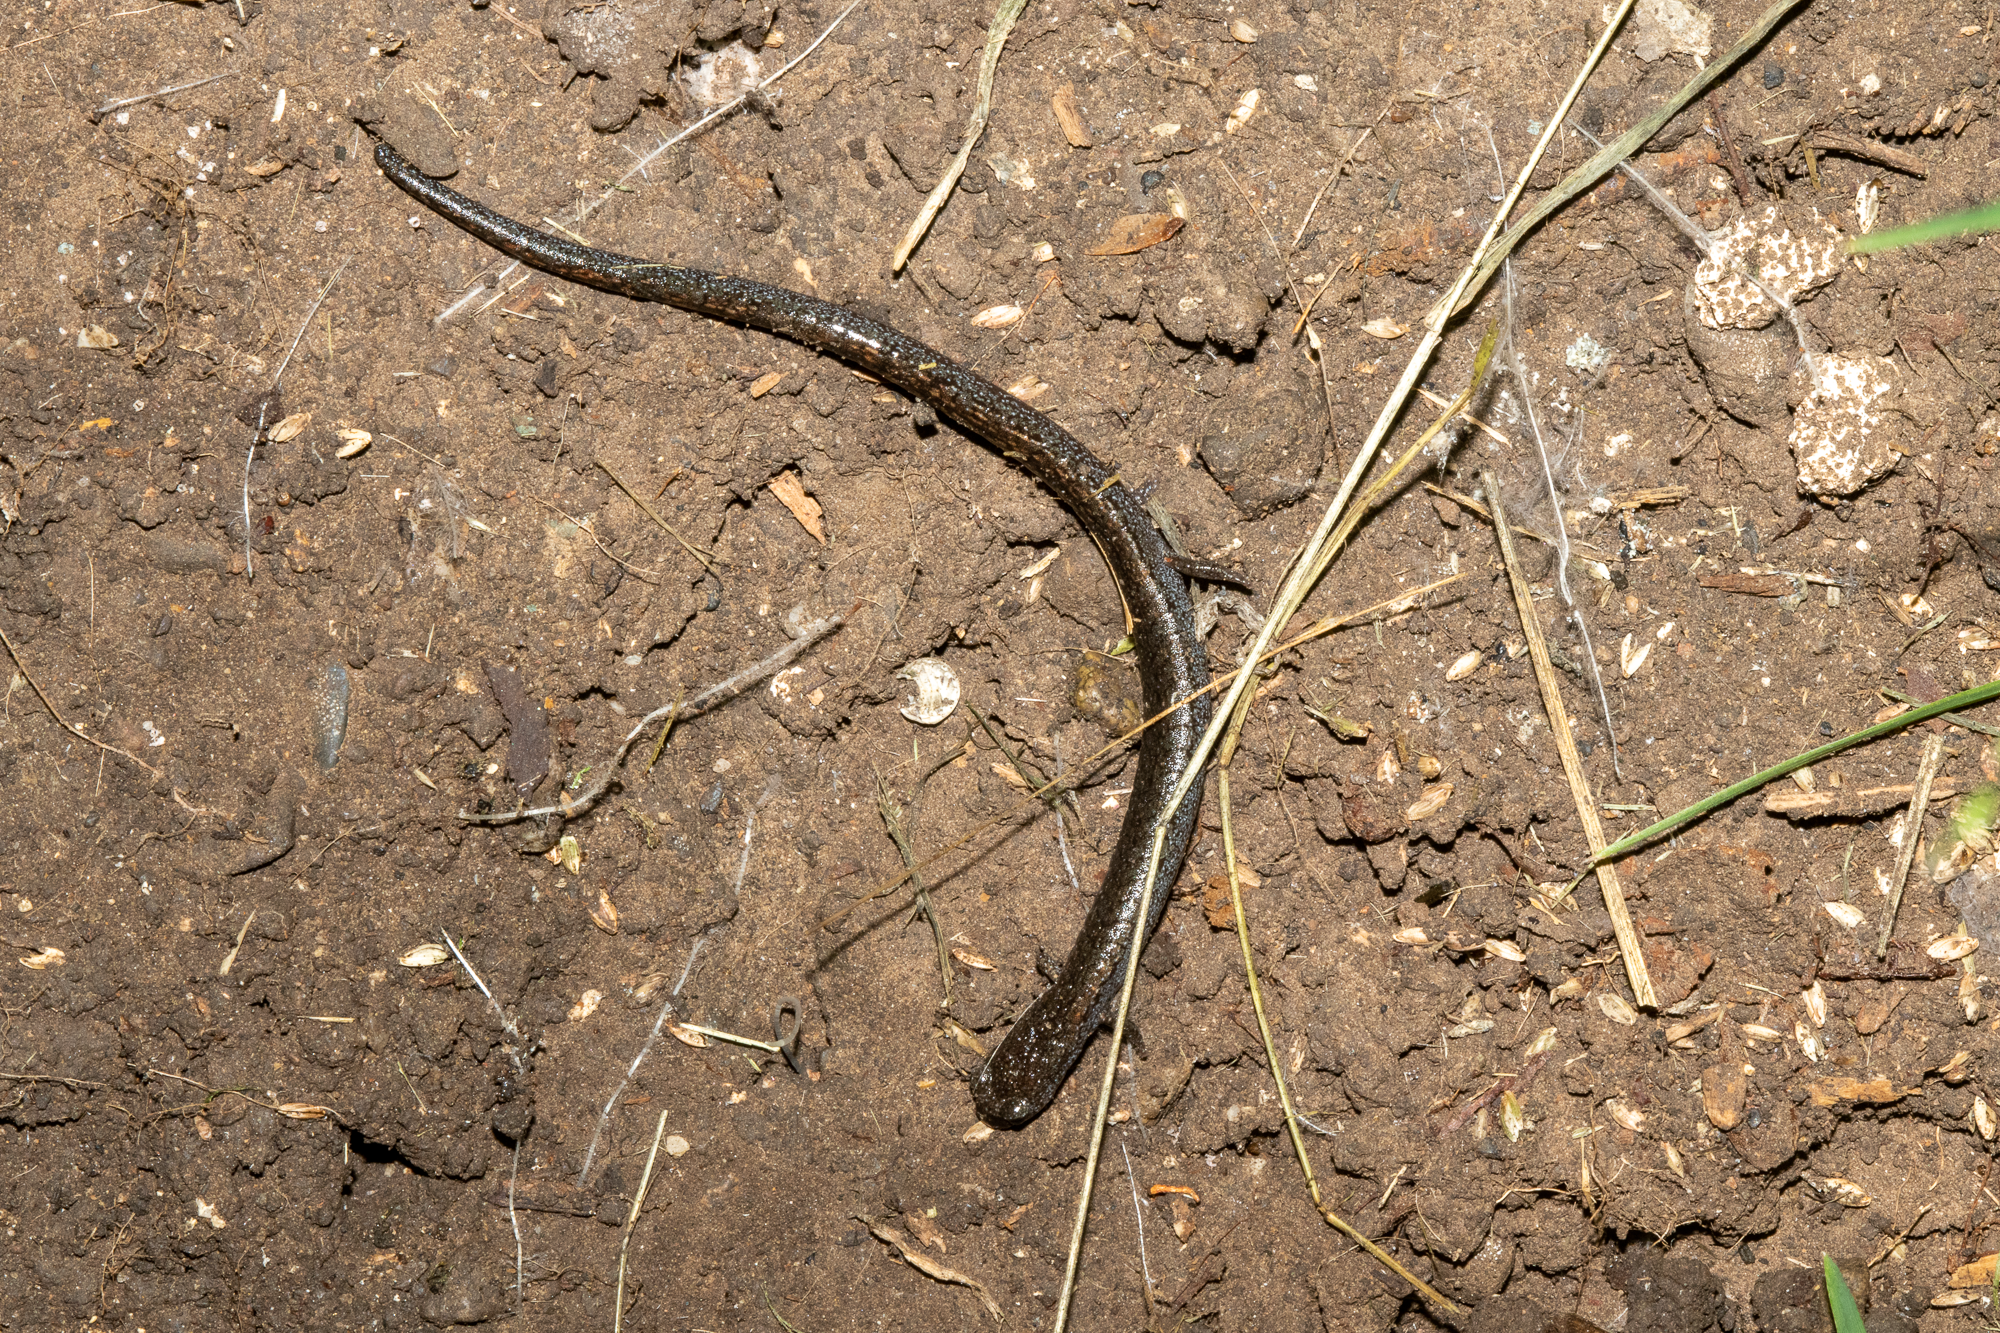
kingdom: Animalia
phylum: Chordata
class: Amphibia
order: Caudata
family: Plethodontidae
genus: Batrachoseps
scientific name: Batrachoseps attenuatus
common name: California slender salamander
